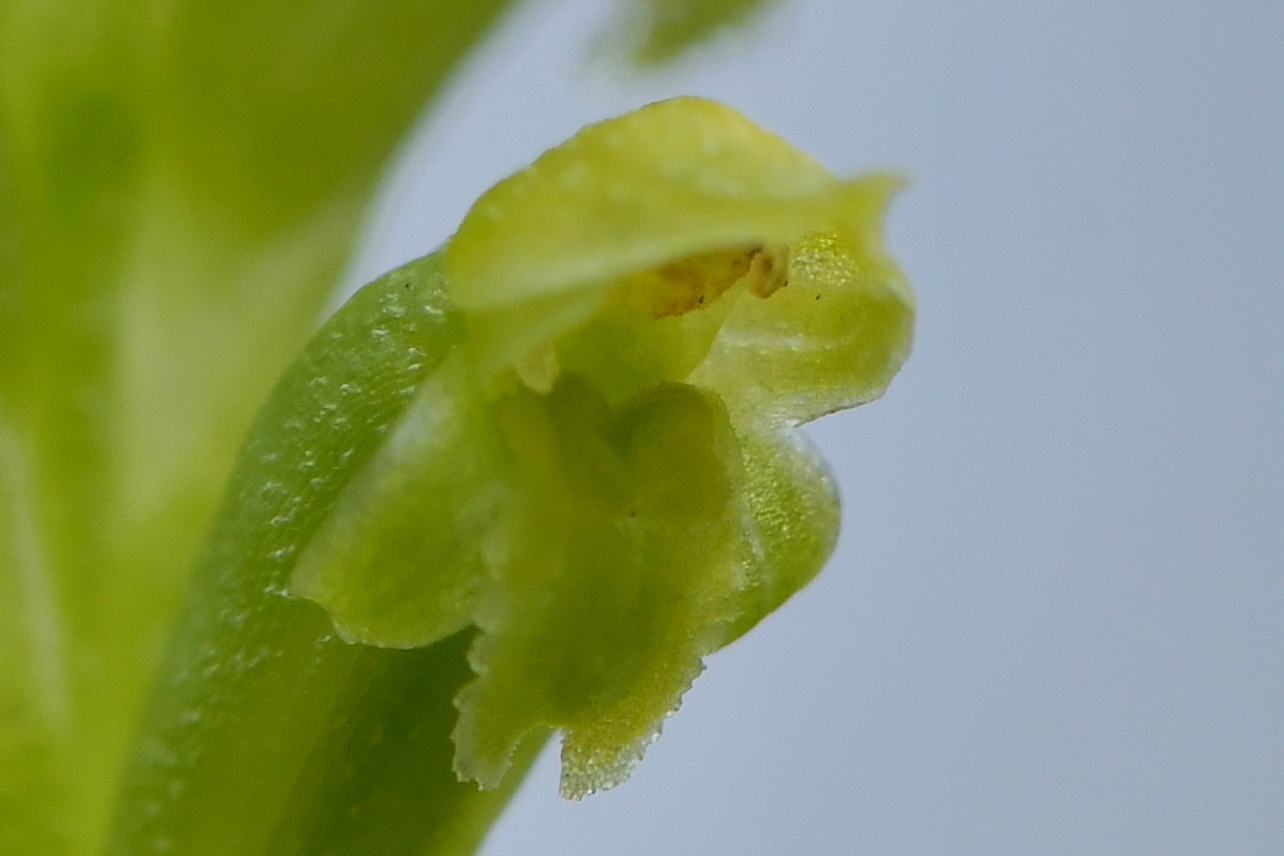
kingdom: Plantae
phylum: Tracheophyta
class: Liliopsida
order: Asparagales
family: Orchidaceae
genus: Microtis
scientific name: Microtis arenaria
